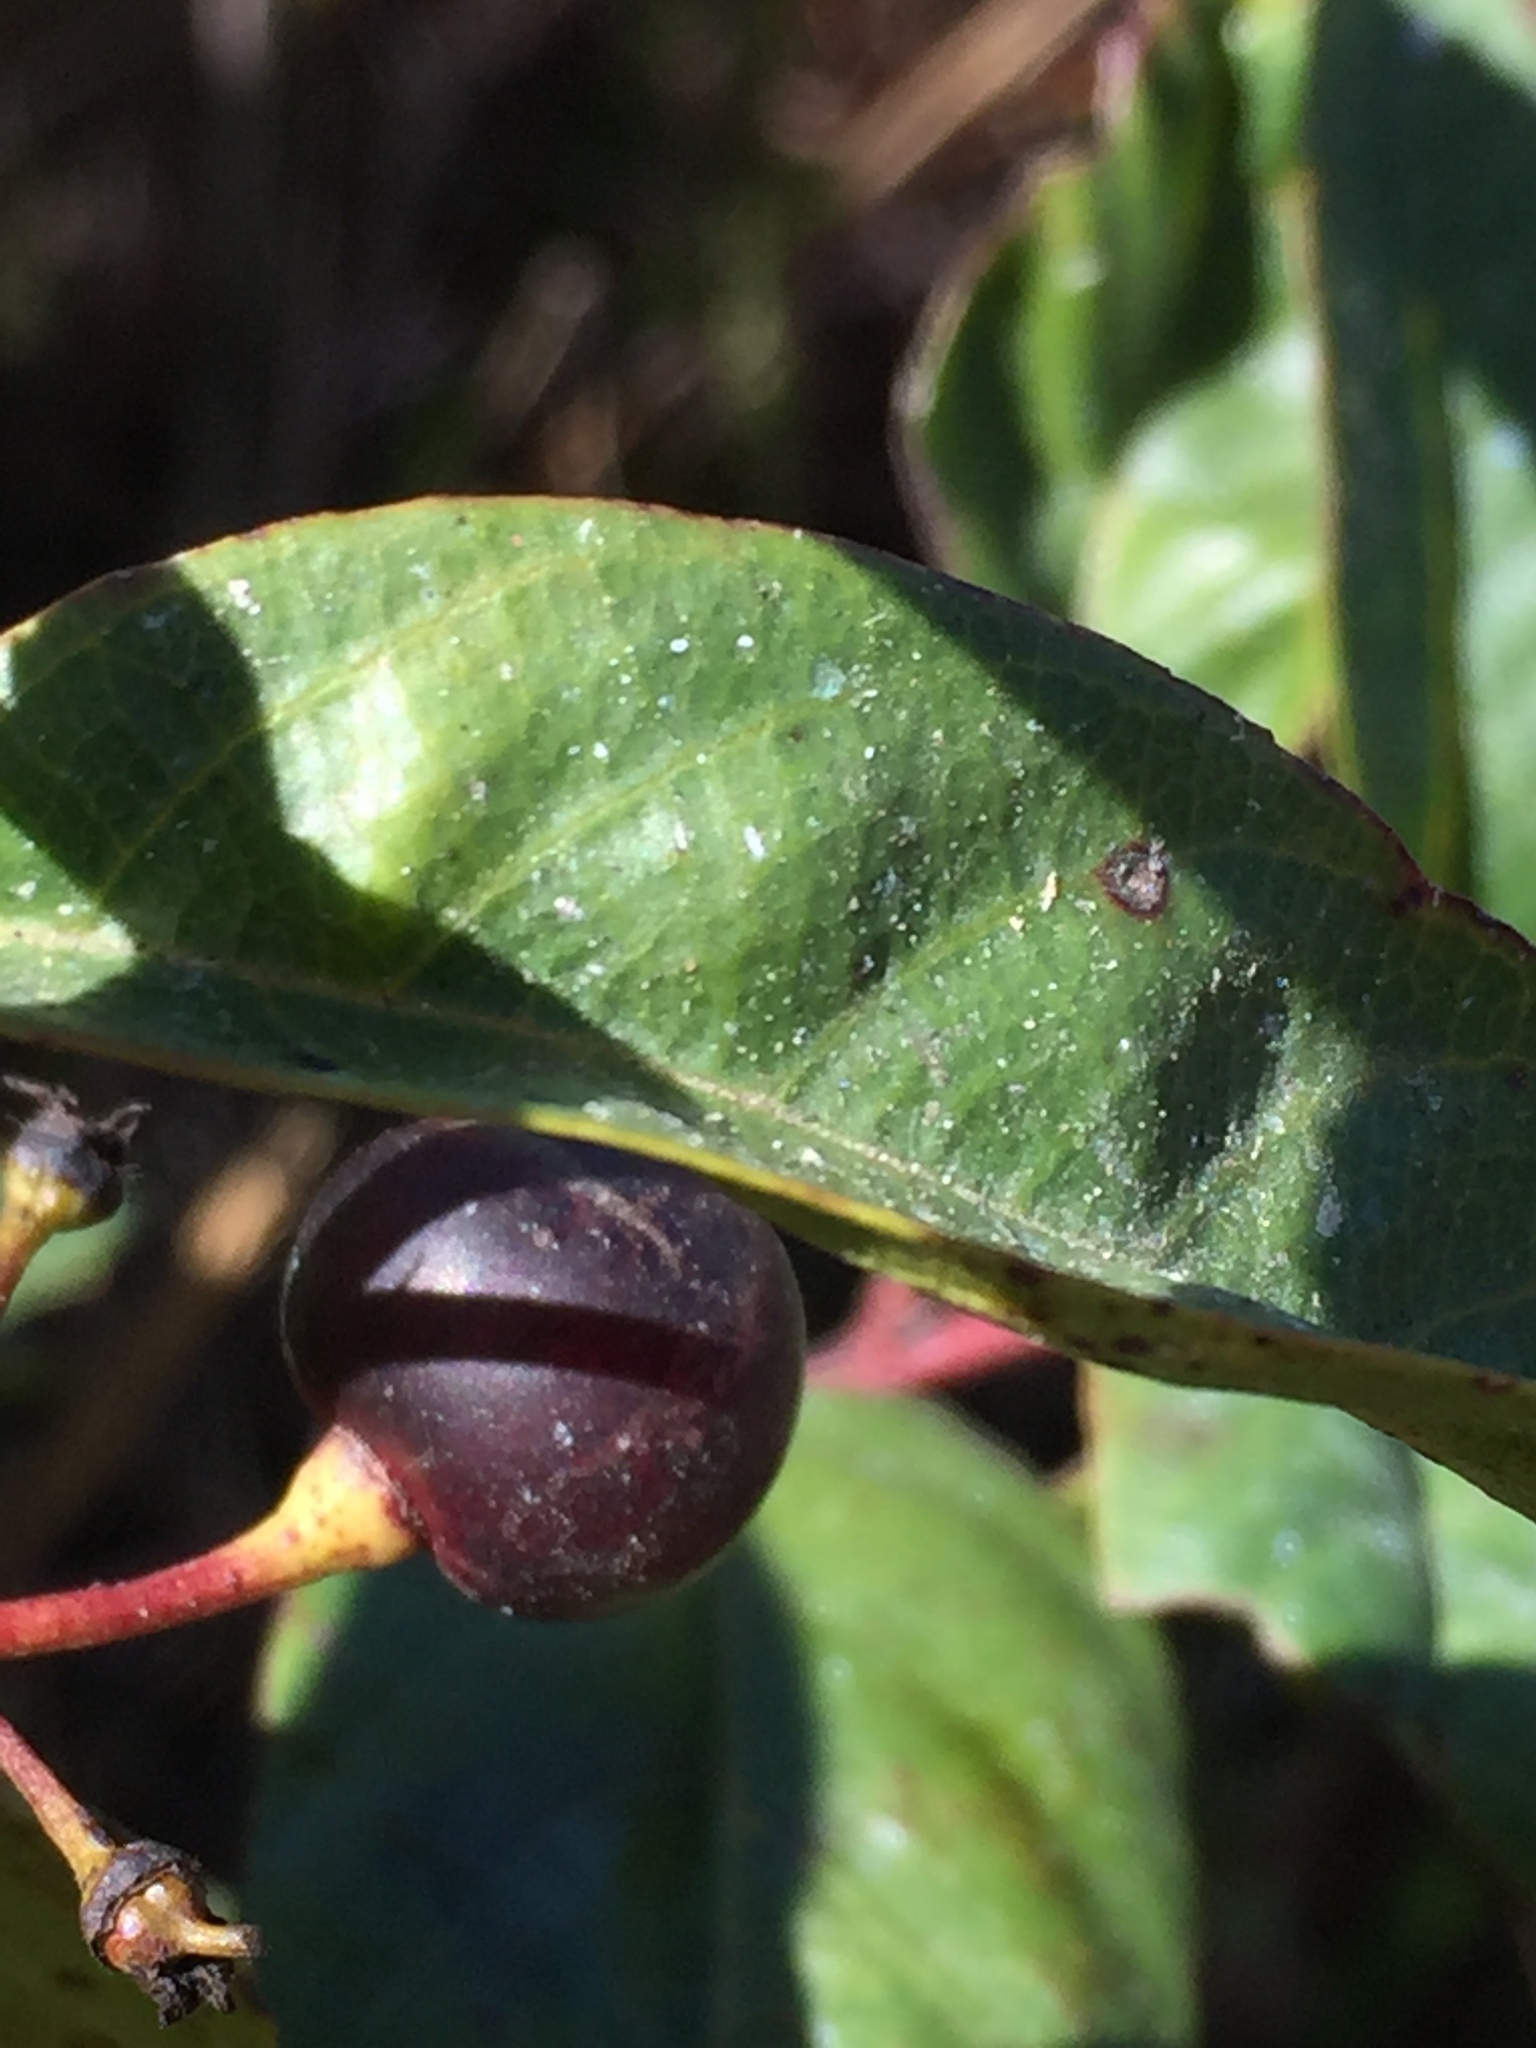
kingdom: Plantae
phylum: Tracheophyta
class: Magnoliopsida
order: Rosales
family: Rhamnaceae
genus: Frangula
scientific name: Frangula californica
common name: California buckthorn
